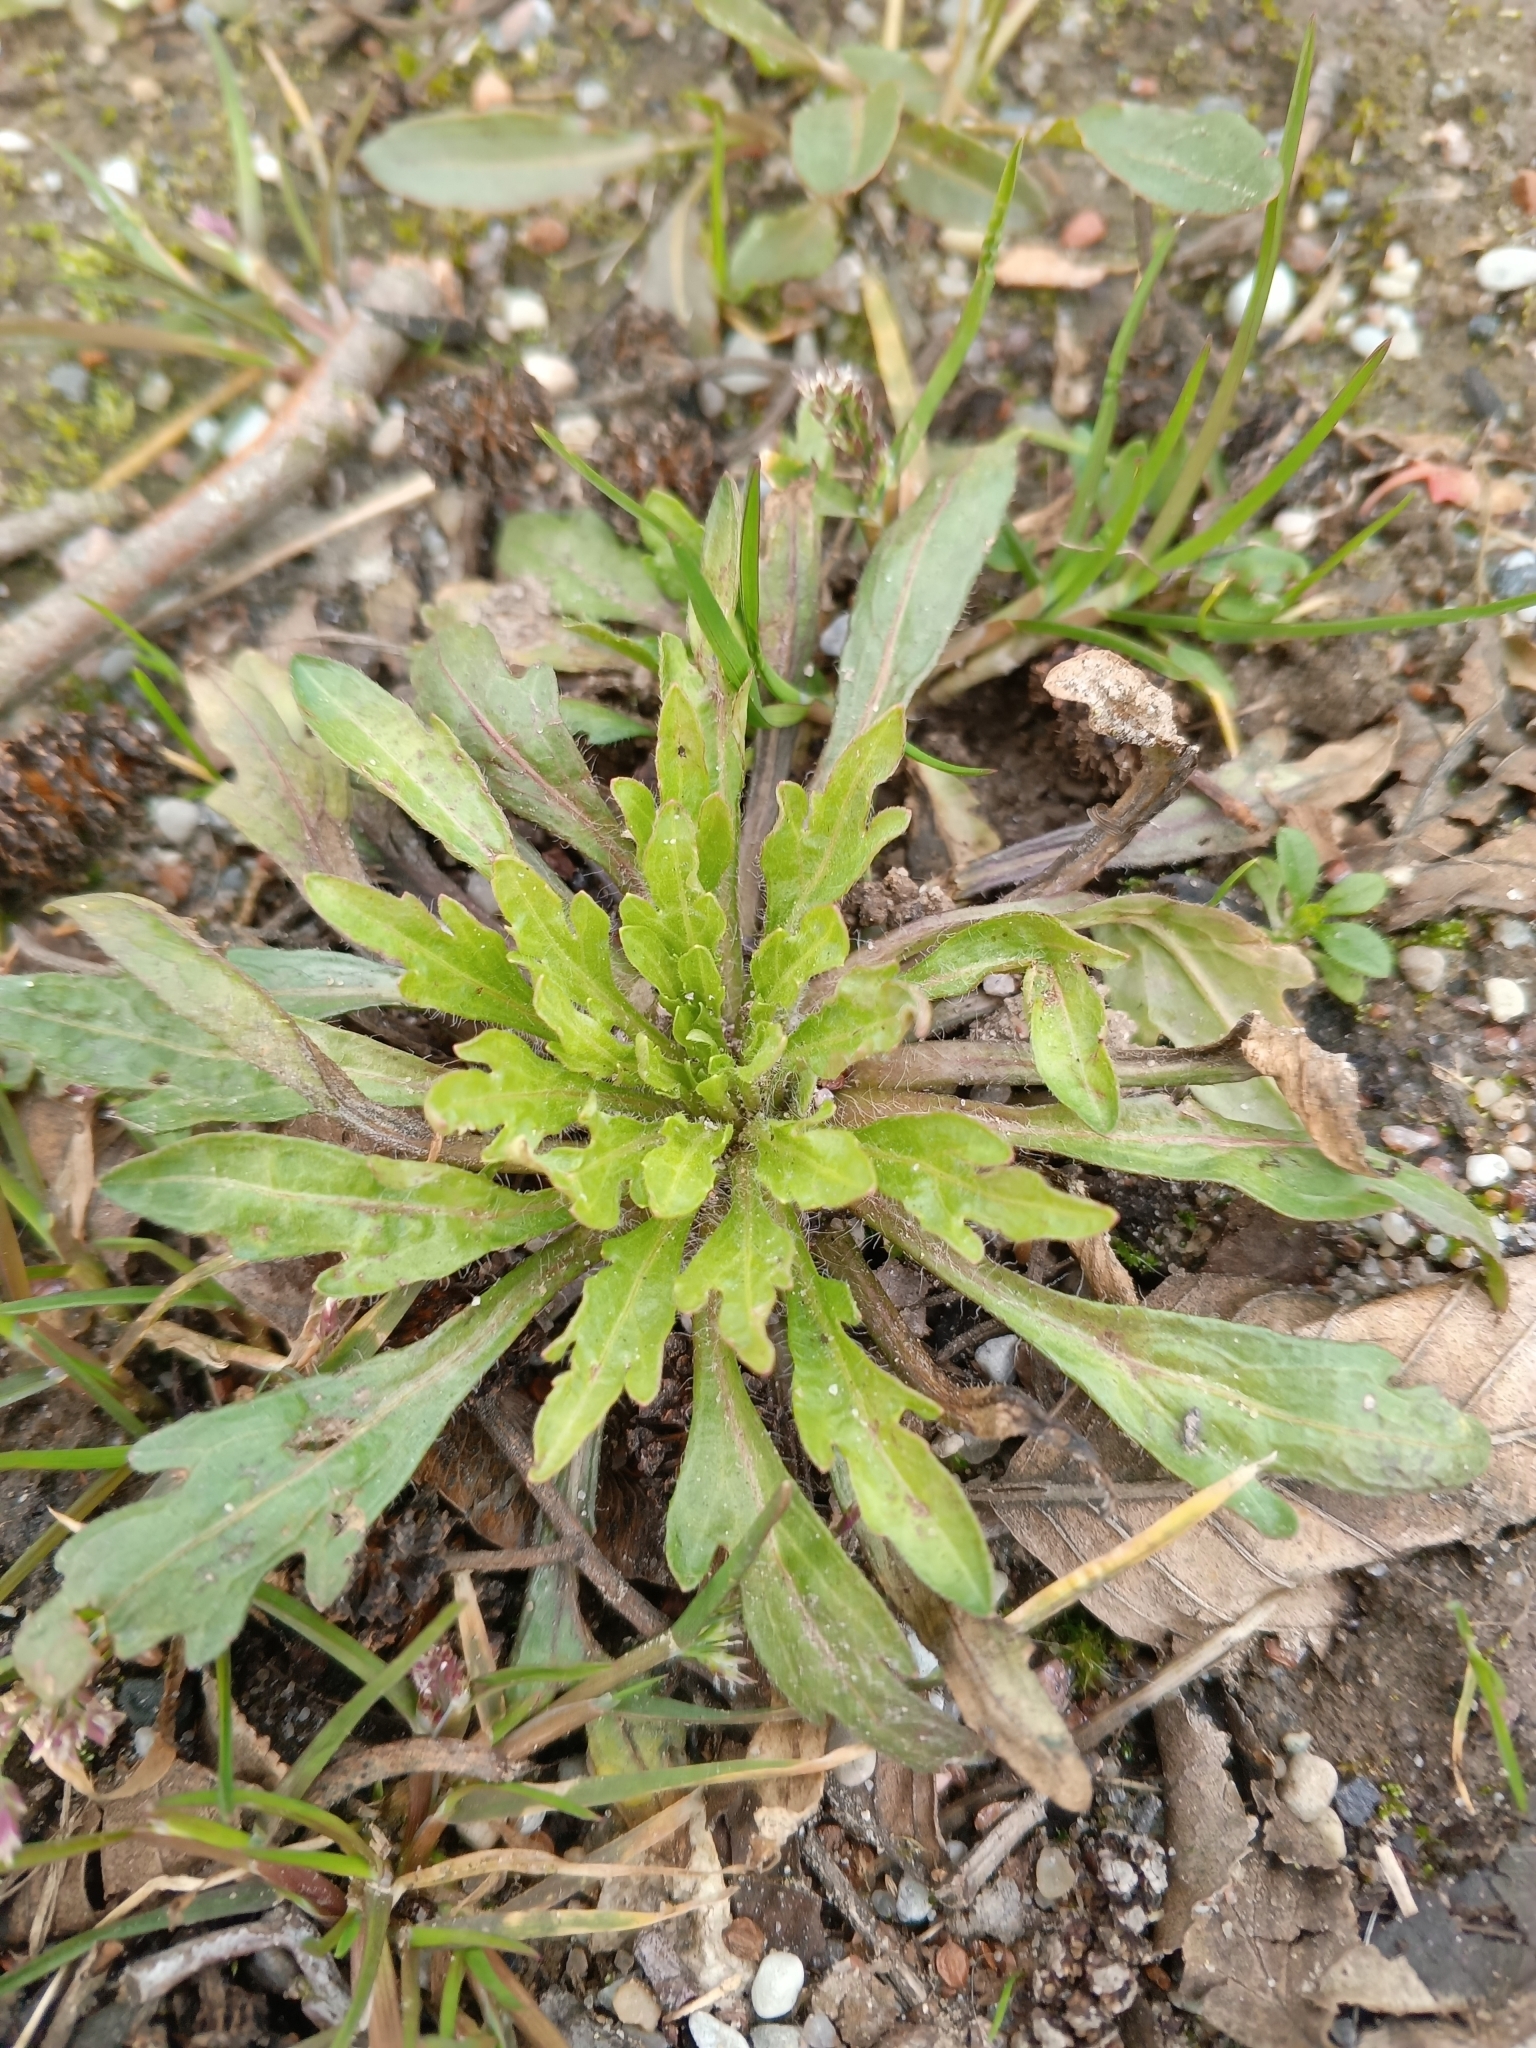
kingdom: Plantae
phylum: Tracheophyta
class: Magnoliopsida
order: Asterales
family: Asteraceae
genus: Erigeron
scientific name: Erigeron canadensis
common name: Canadian fleabane
